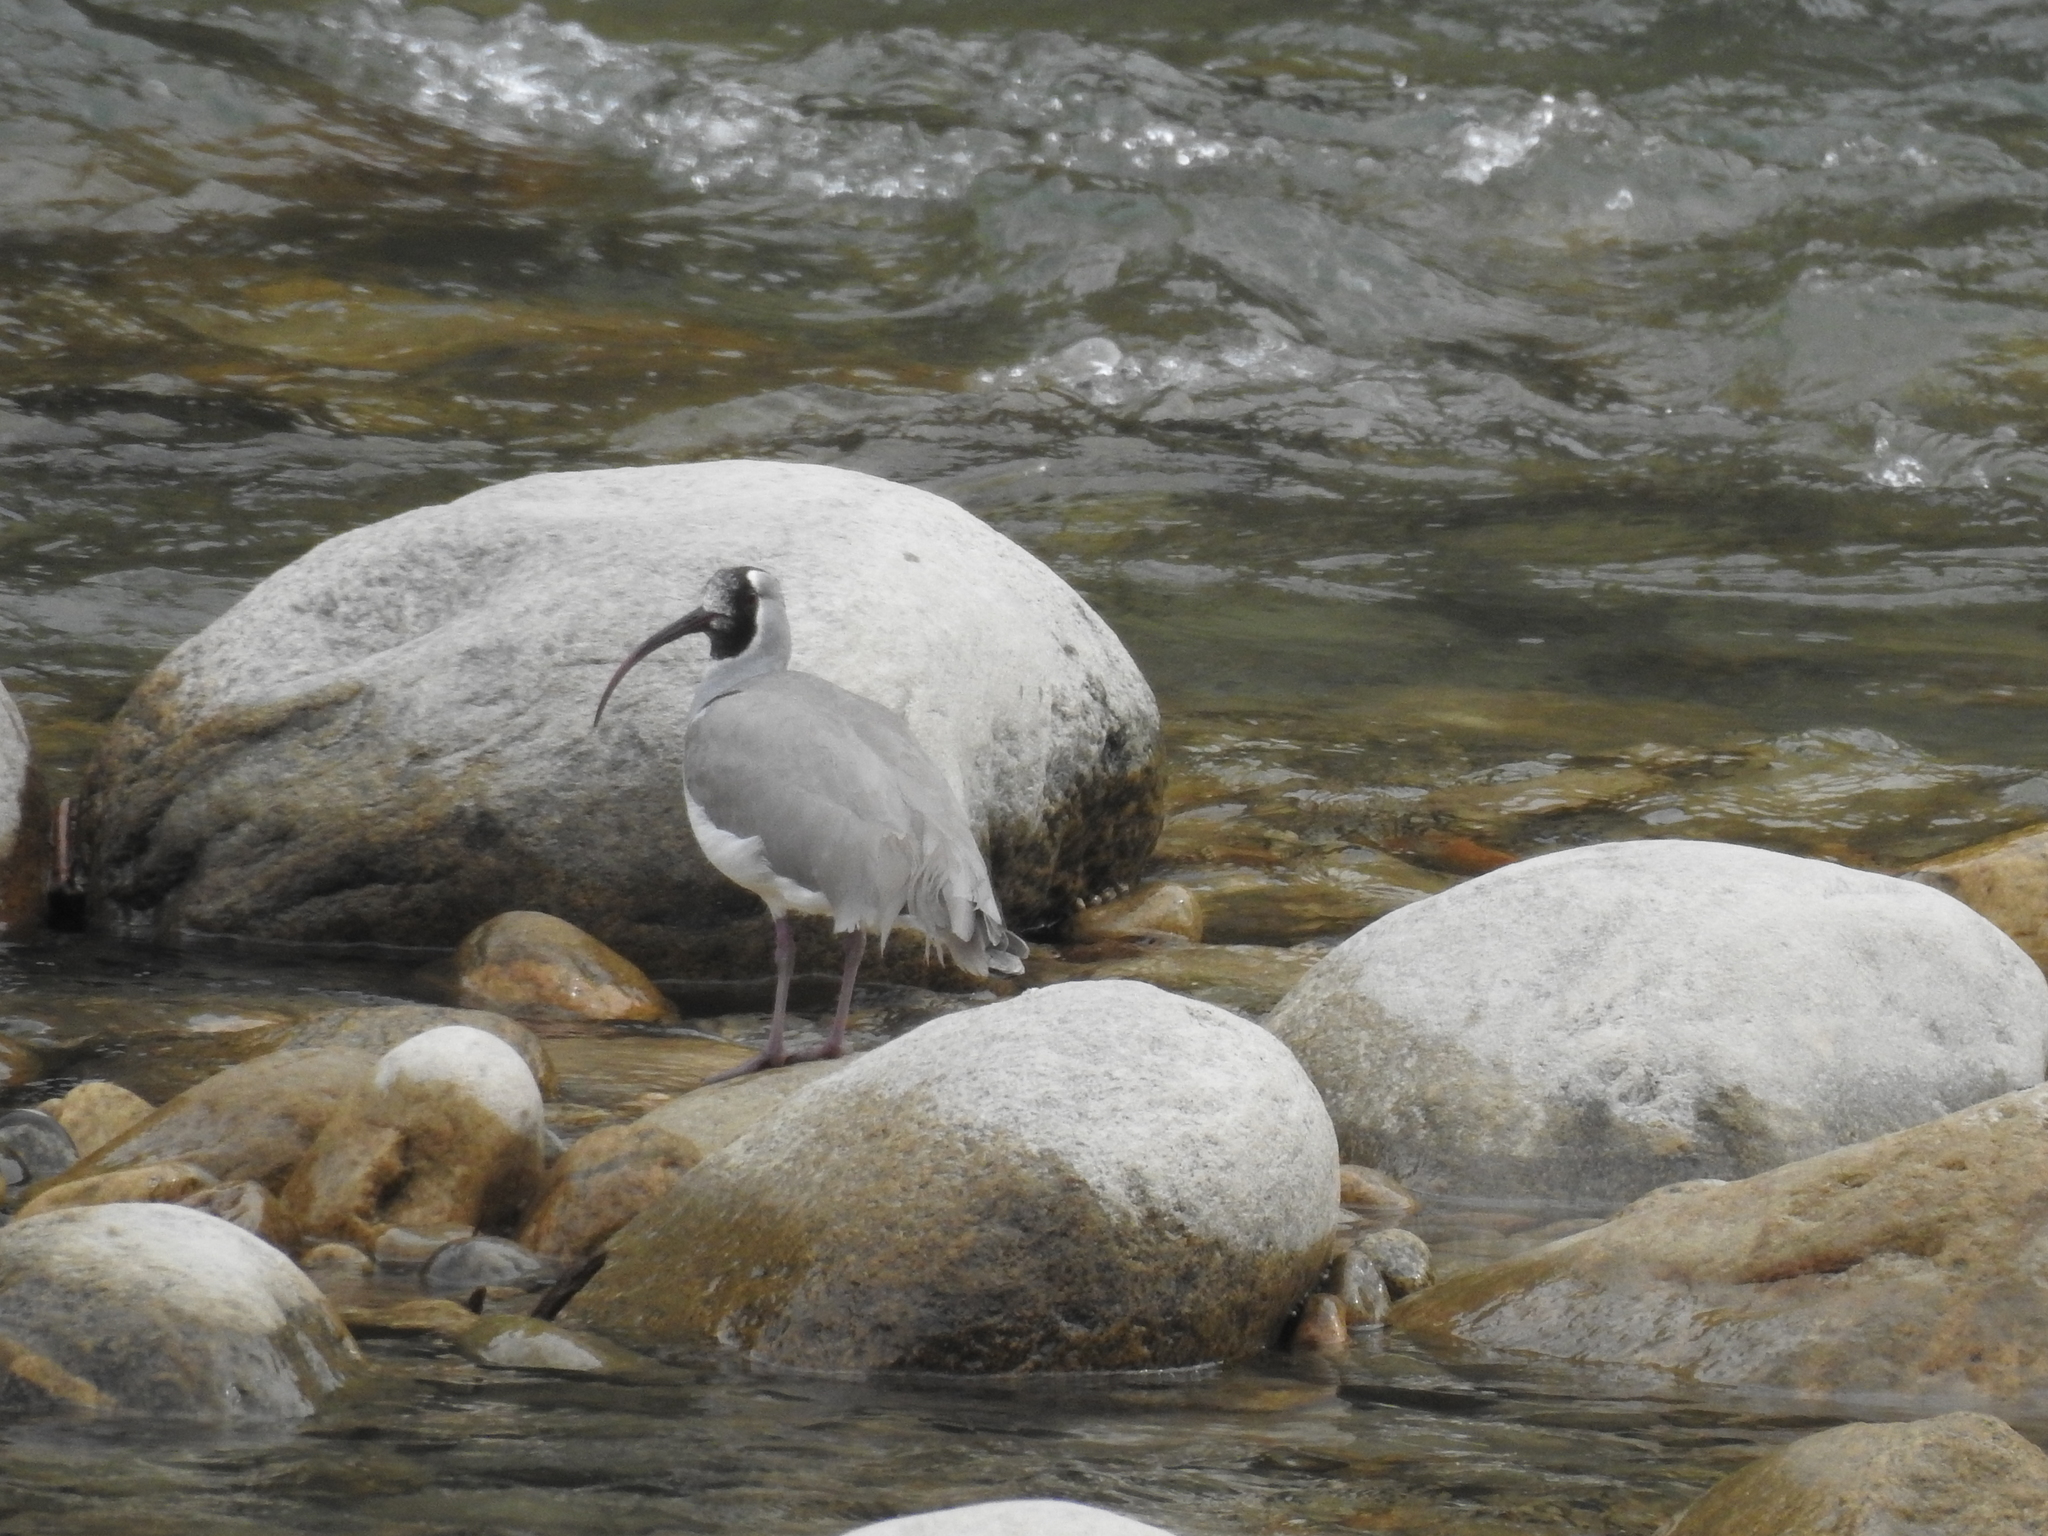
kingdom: Animalia
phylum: Chordata
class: Aves
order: Charadriiformes
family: Ibidorhynchidae
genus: Ibidorhyncha
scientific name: Ibidorhyncha struthersii
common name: Ibisbill
